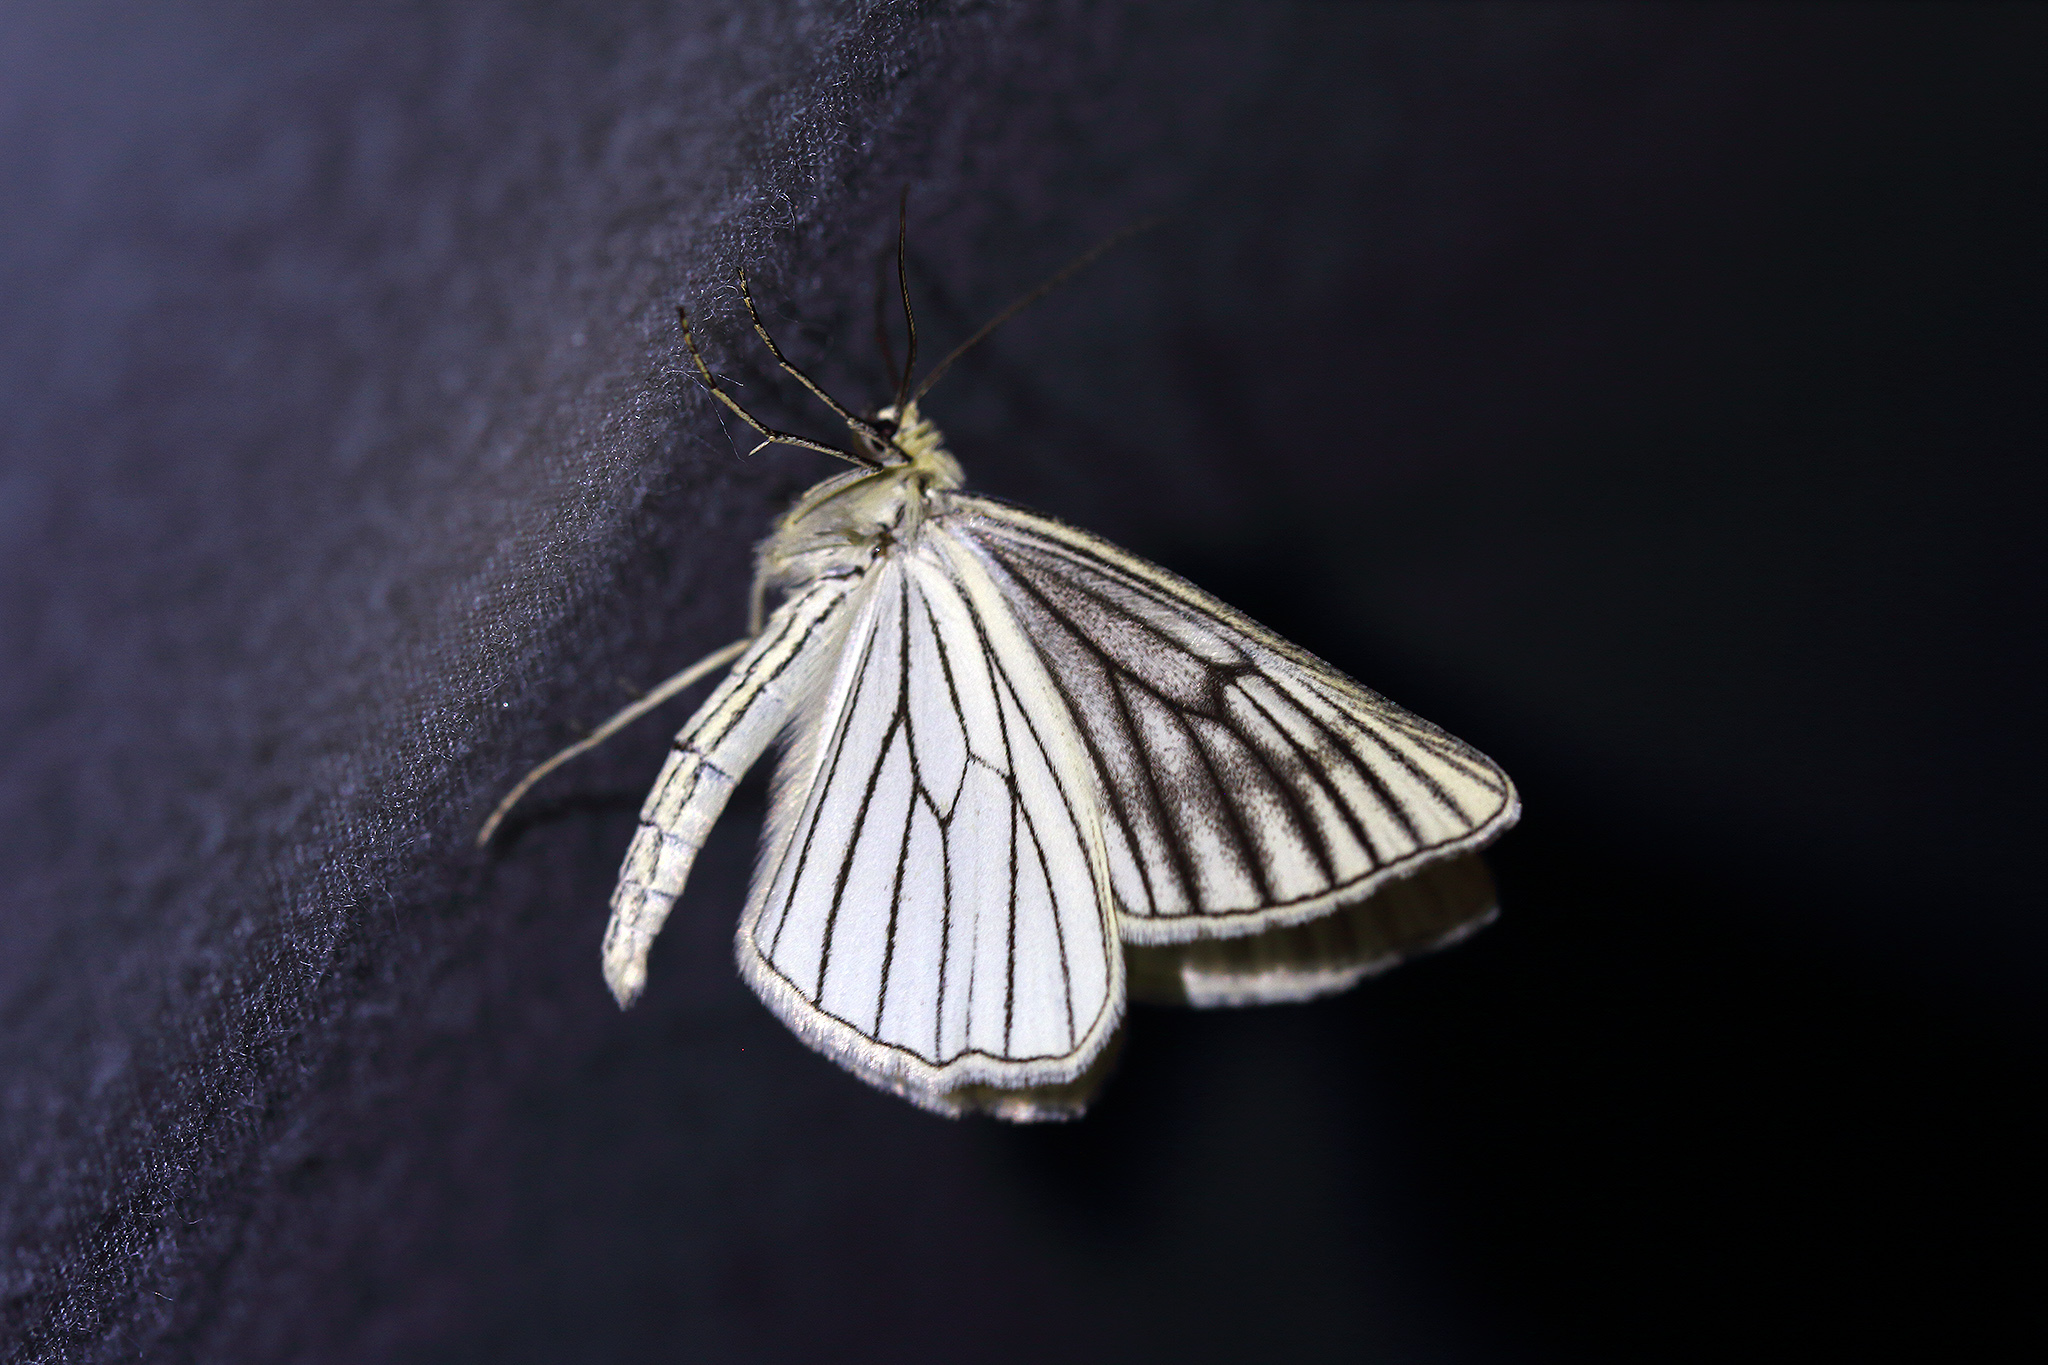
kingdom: Animalia
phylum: Arthropoda
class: Insecta
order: Lepidoptera
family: Geometridae
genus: Siona
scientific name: Siona lineata
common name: Black-veined moth
